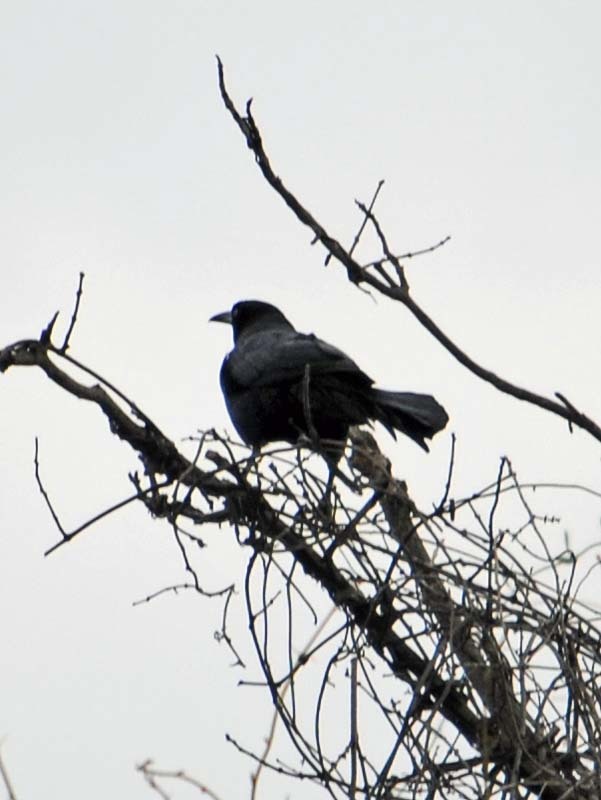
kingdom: Animalia
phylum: Chordata
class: Aves
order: Passeriformes
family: Icteridae
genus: Quiscalus
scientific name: Quiscalus mexicanus
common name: Great-tailed grackle
